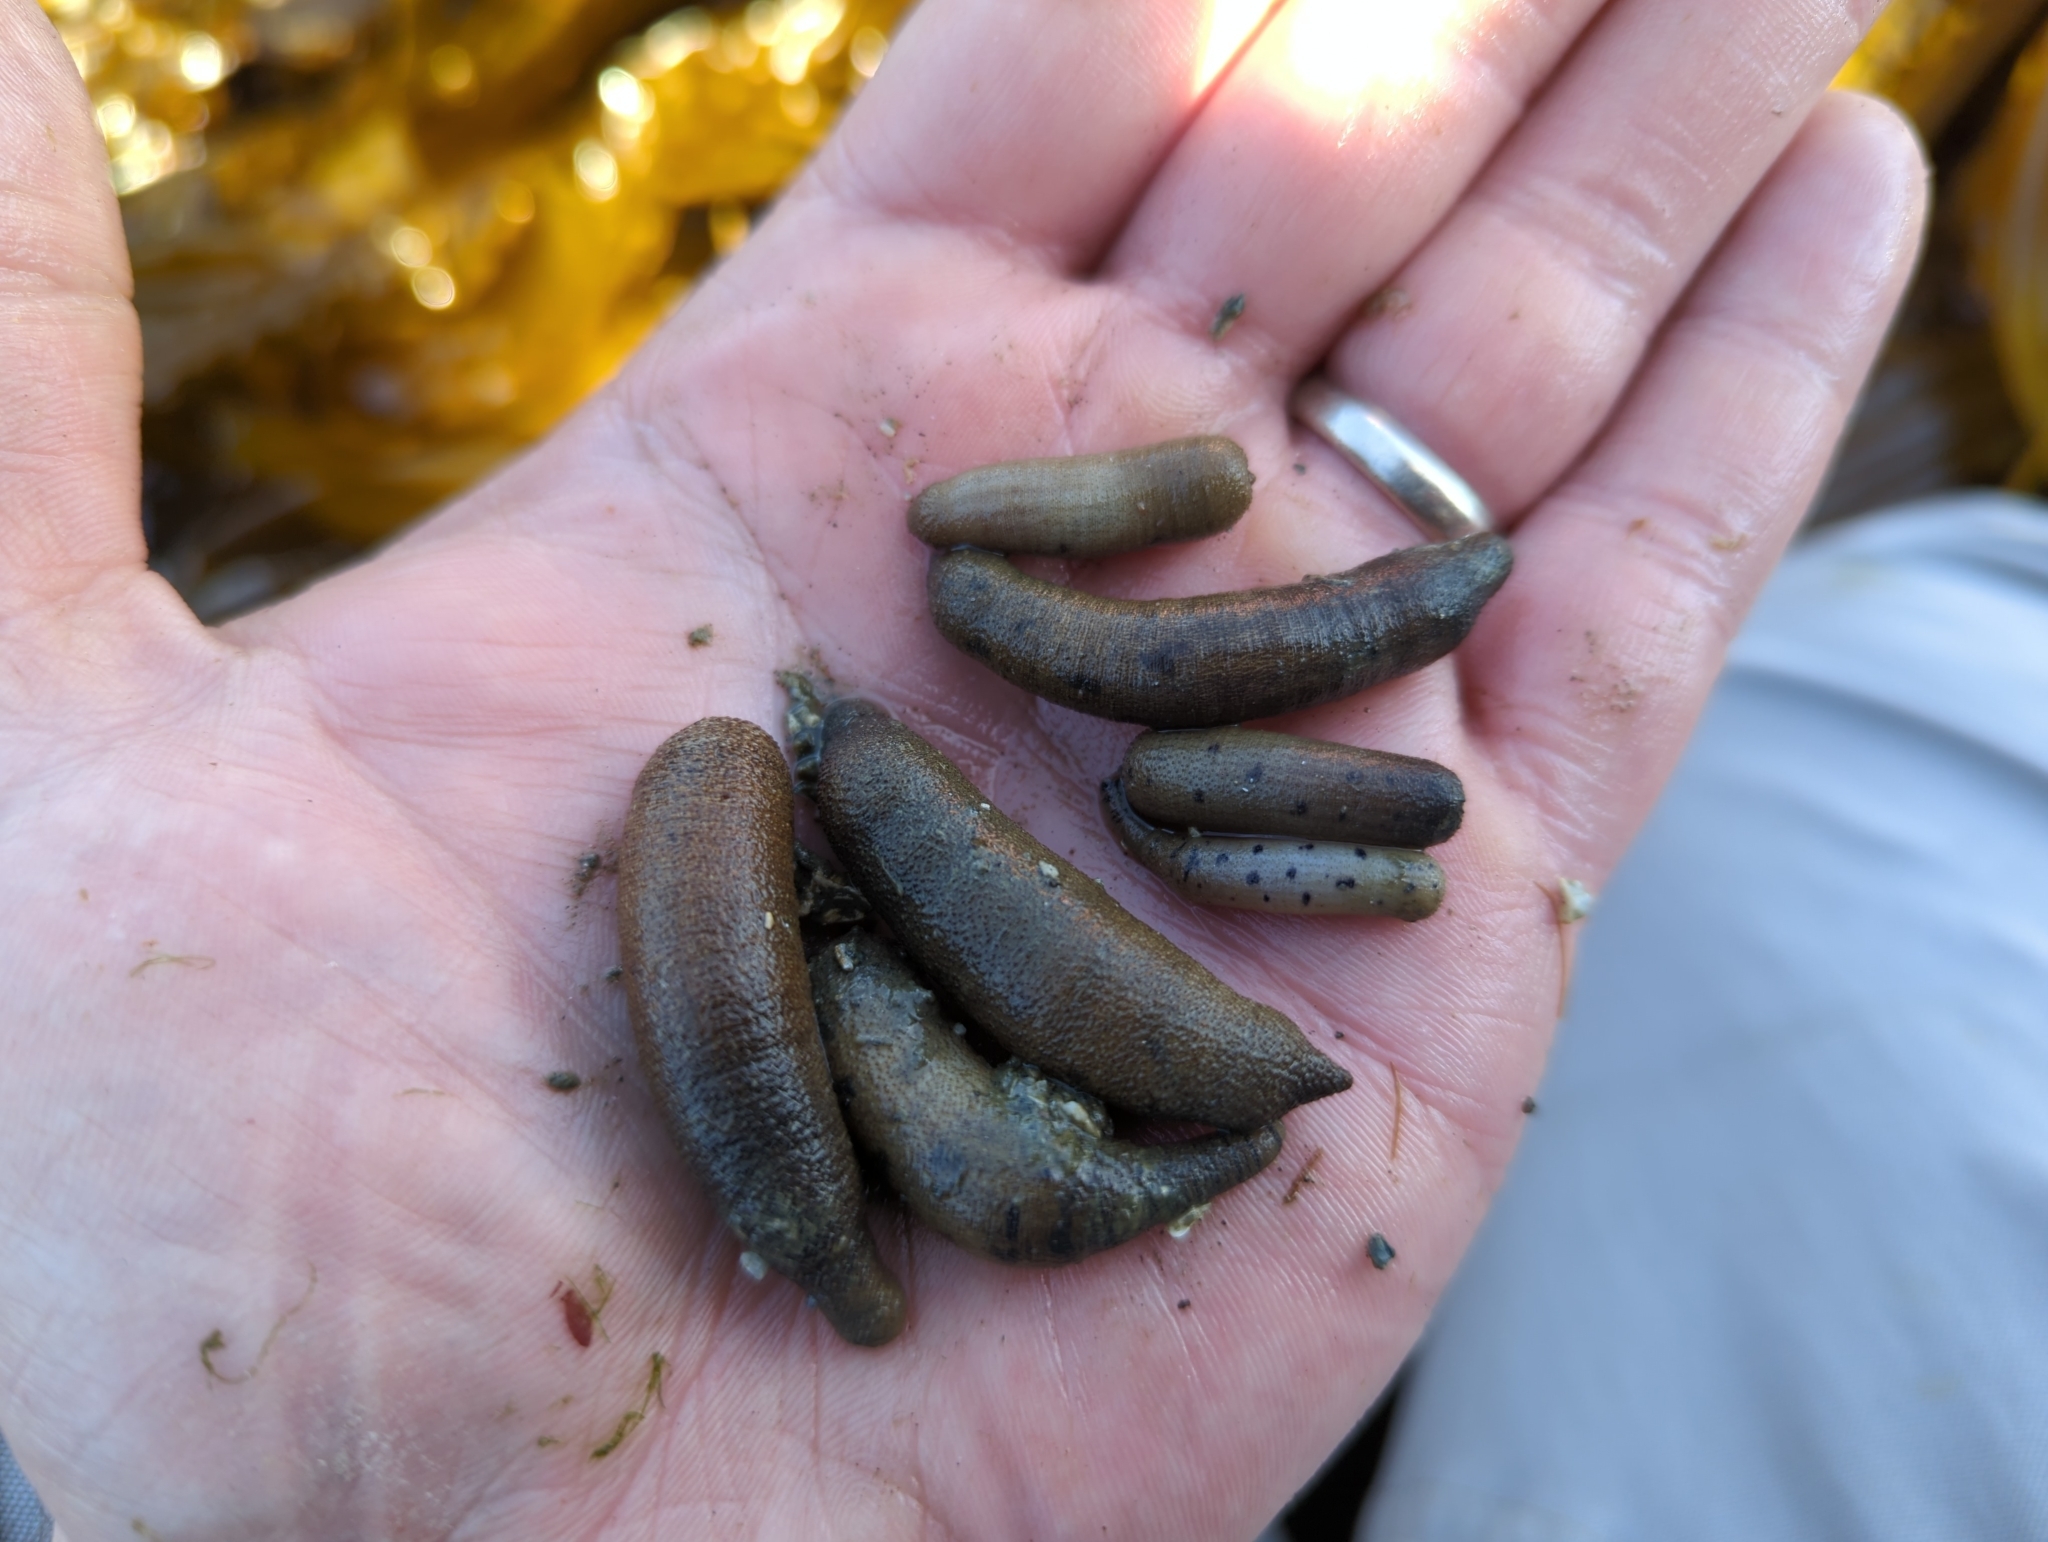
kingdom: Animalia
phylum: Sipuncula
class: Phascolosomatidea
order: Phascolosomatiformes
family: Phascolosomatidae
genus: Phascolosoma
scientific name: Phascolosoma agassizii
